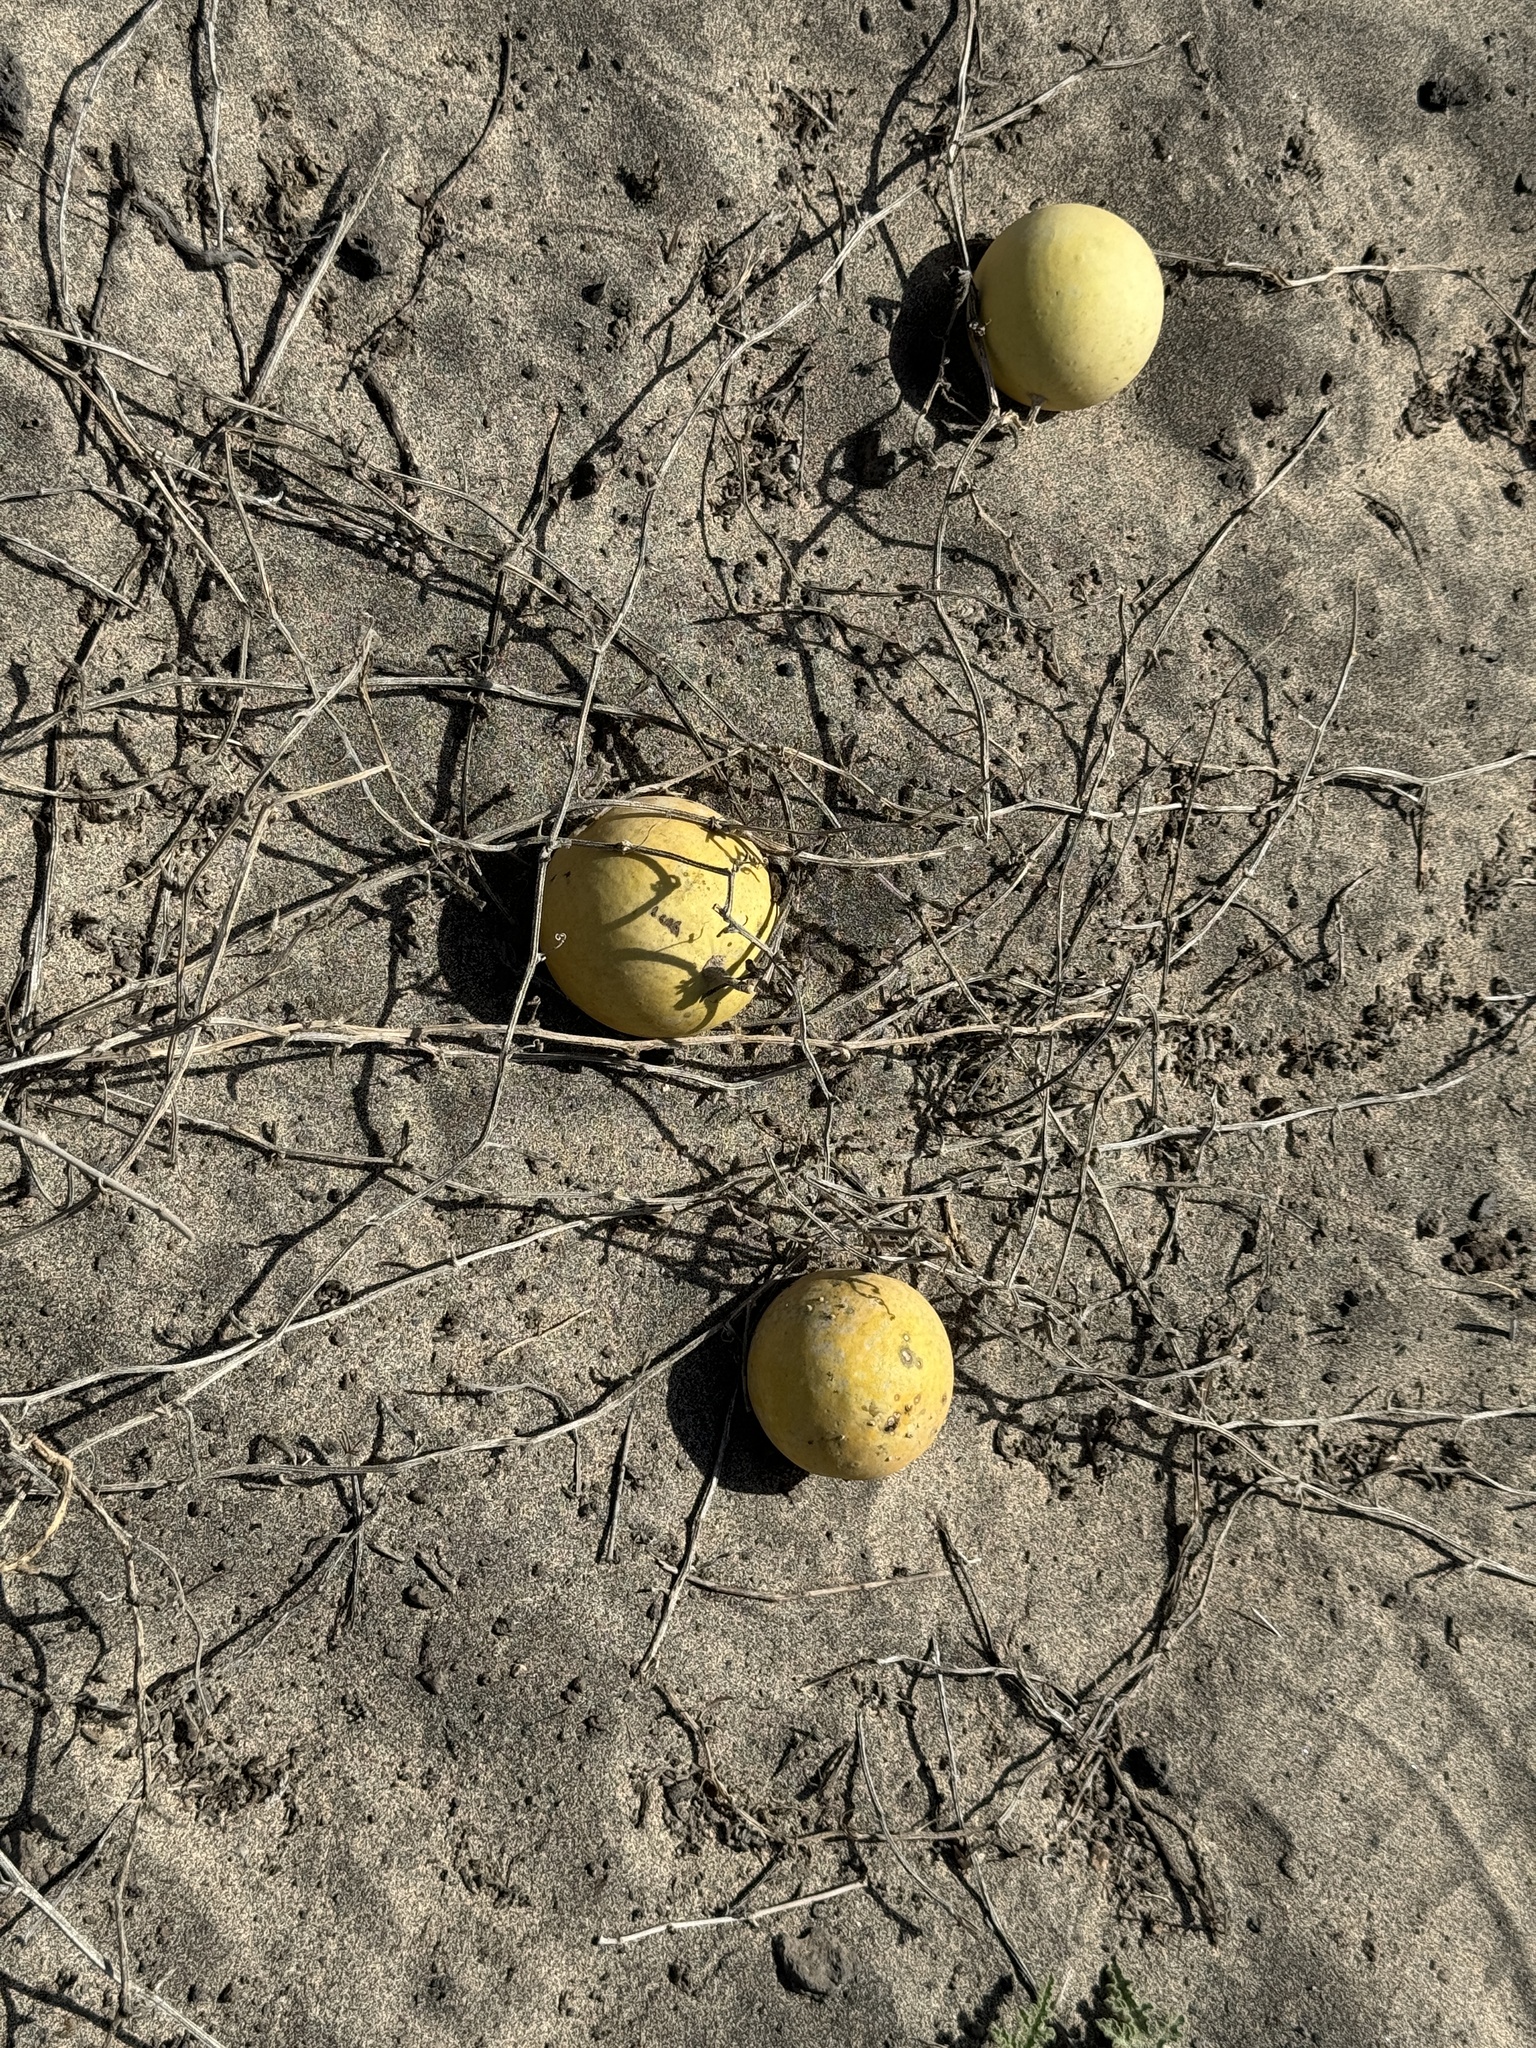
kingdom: Plantae
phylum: Tracheophyta
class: Magnoliopsida
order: Cucurbitales
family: Cucurbitaceae
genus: Citrullus
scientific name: Citrullus colocynthis
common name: Colocynth
